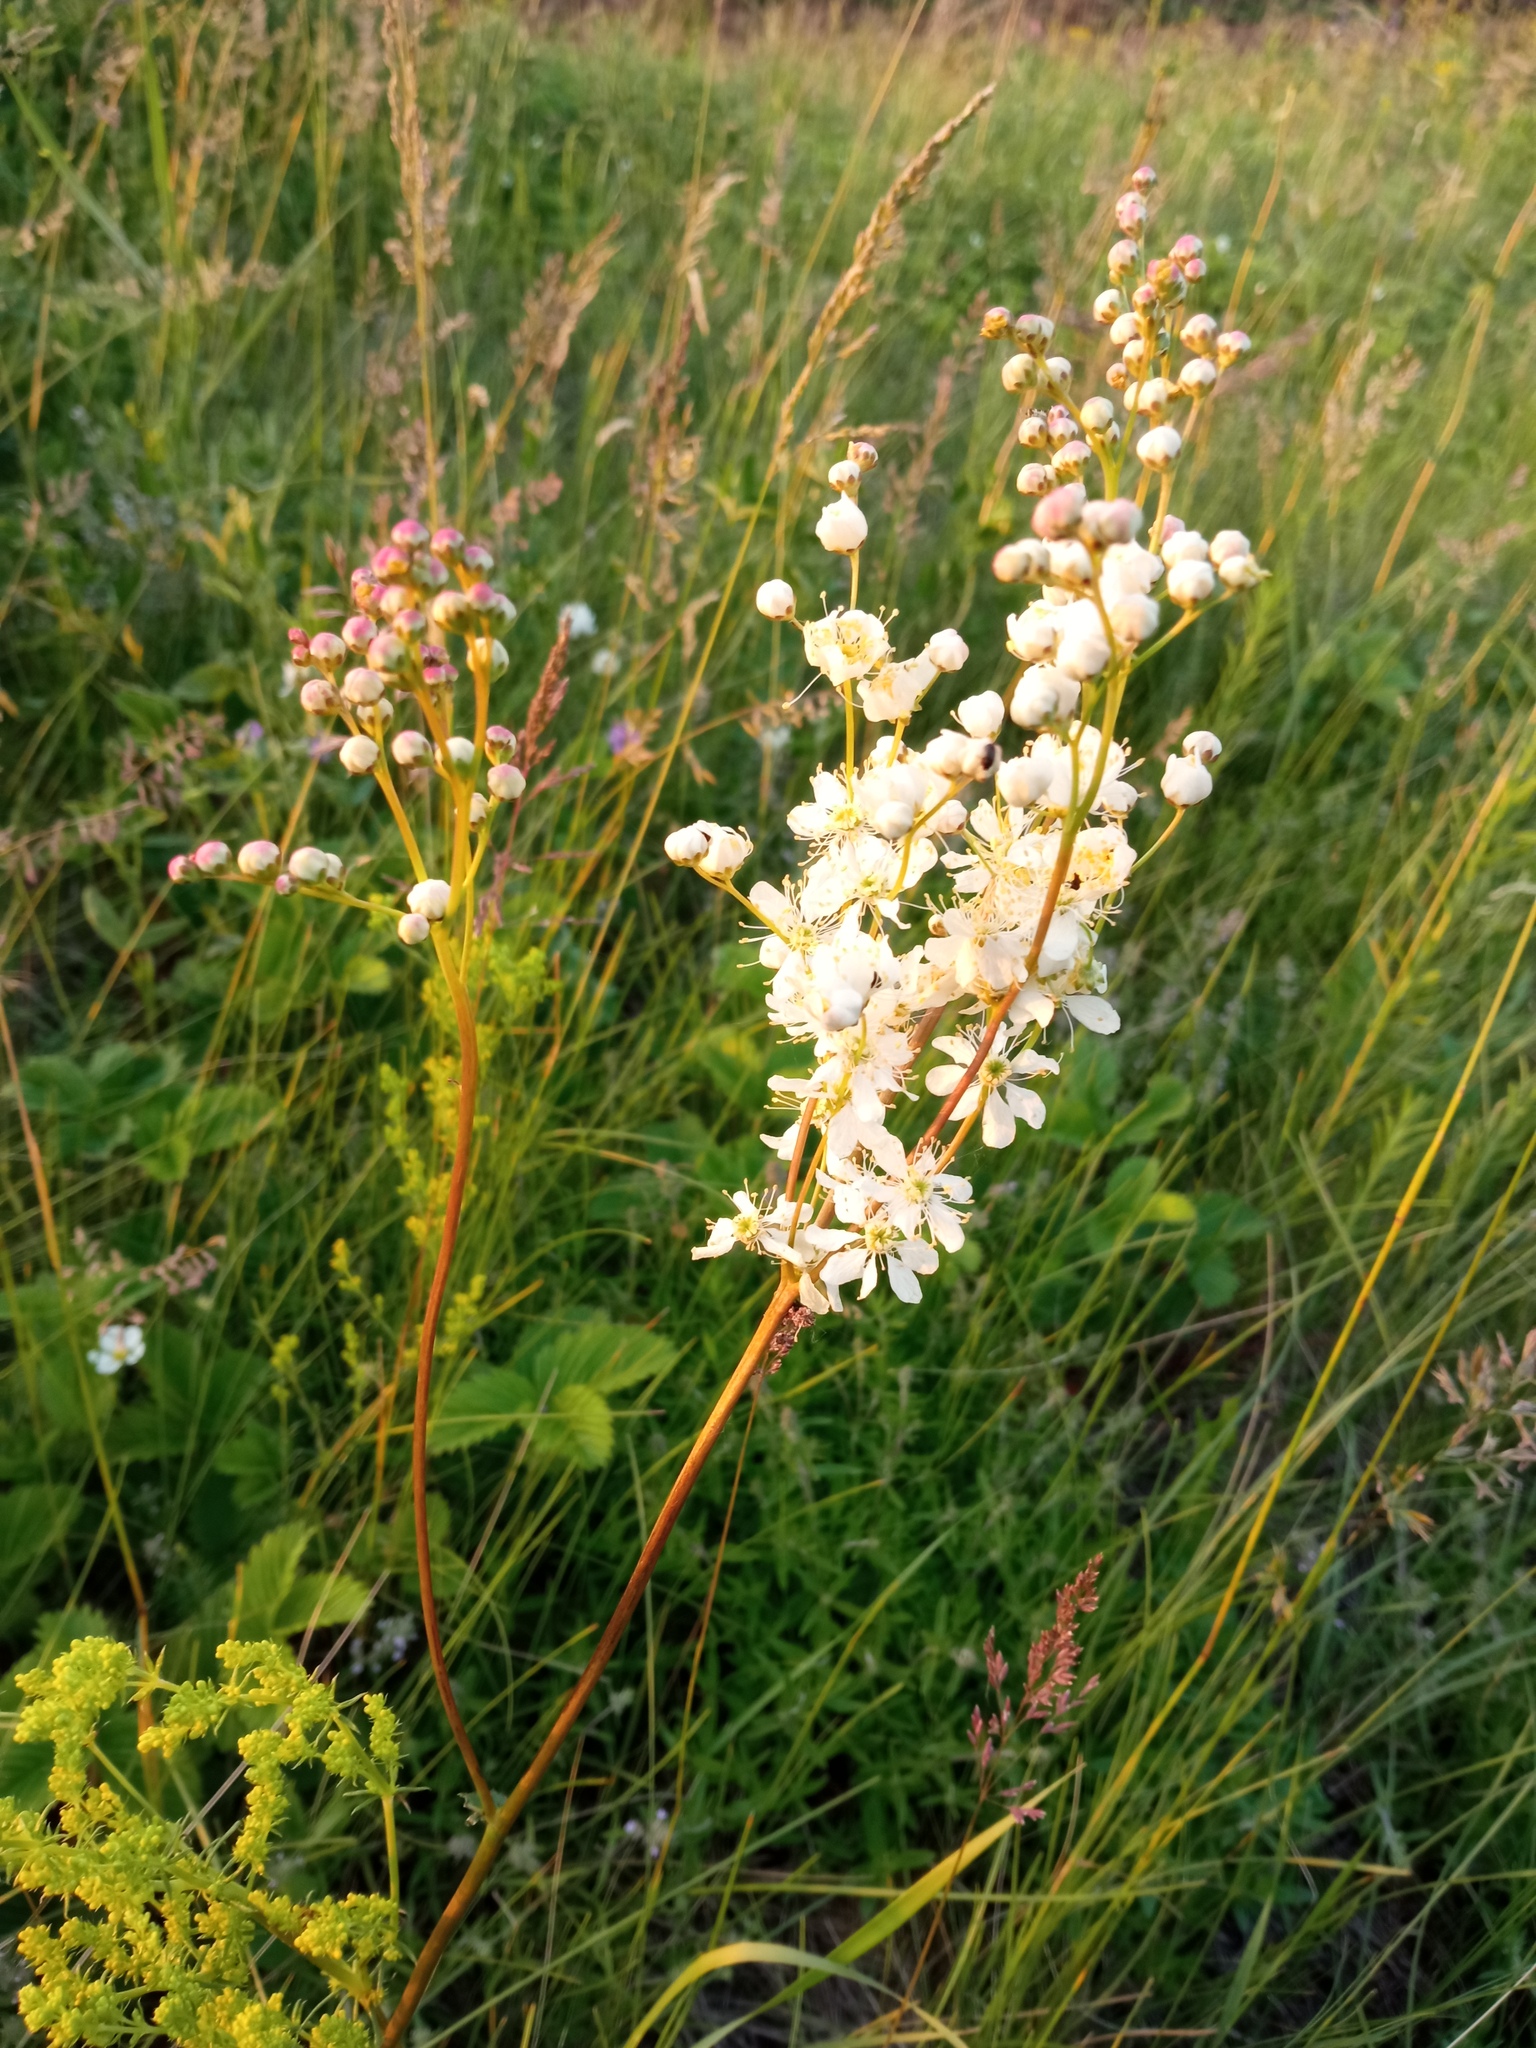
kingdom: Plantae
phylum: Tracheophyta
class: Magnoliopsida
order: Rosales
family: Rosaceae
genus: Filipendula
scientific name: Filipendula vulgaris
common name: Dropwort
